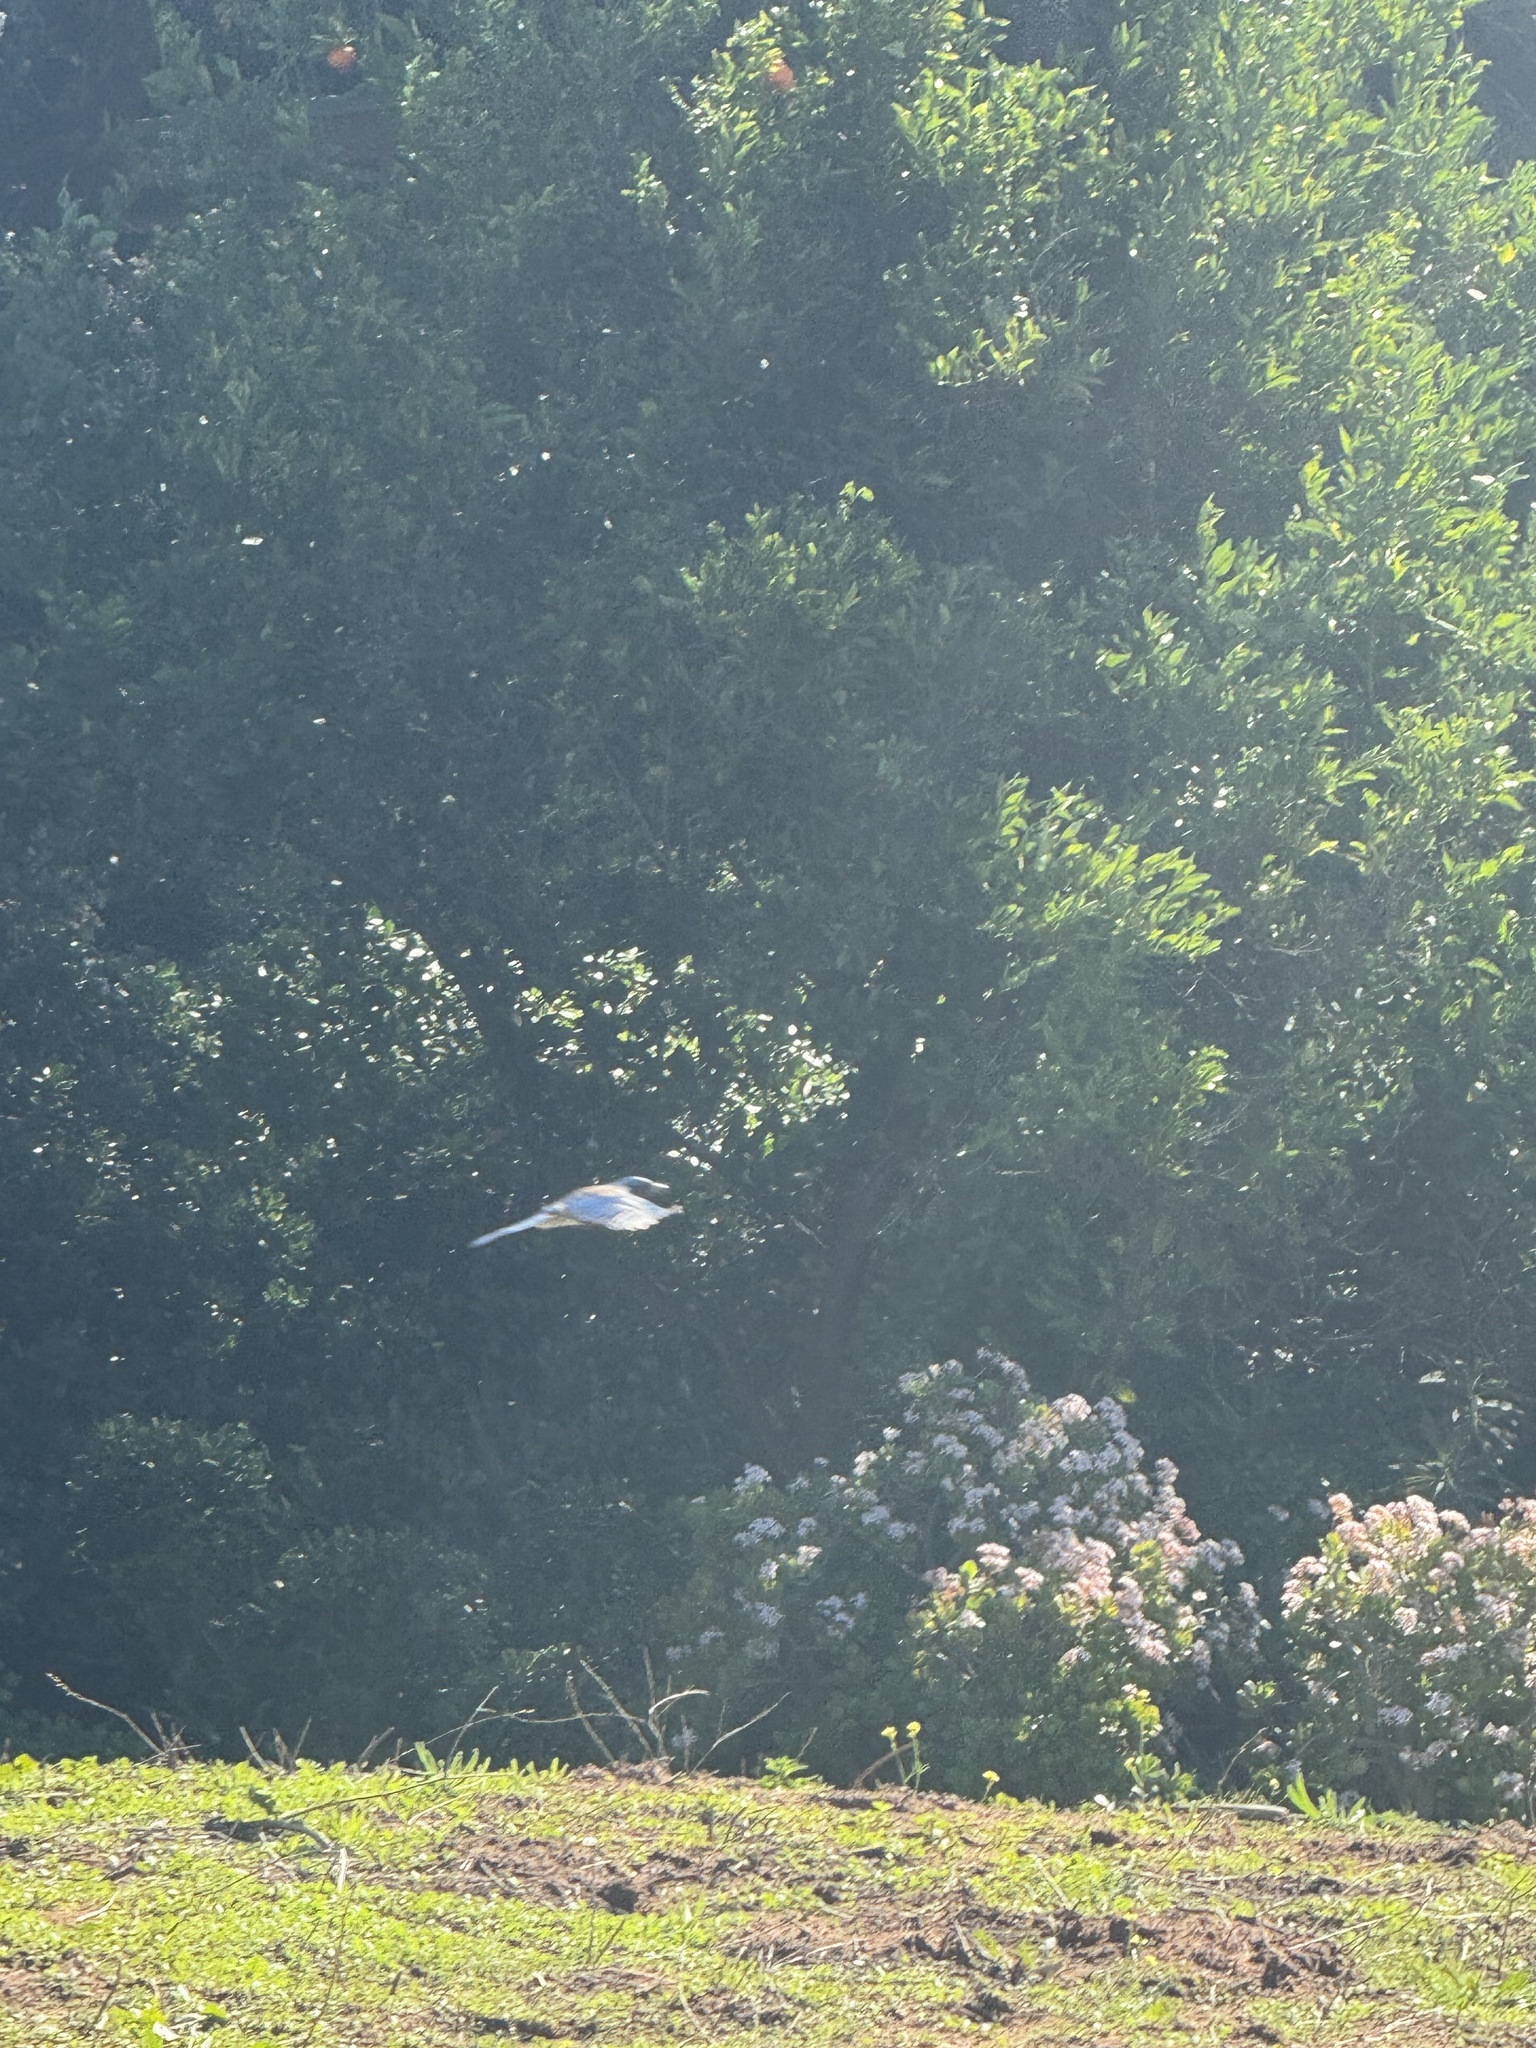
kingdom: Animalia
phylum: Chordata
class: Aves
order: Passeriformes
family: Corvidae
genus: Aphelocoma
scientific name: Aphelocoma californica
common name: California scrub-jay
